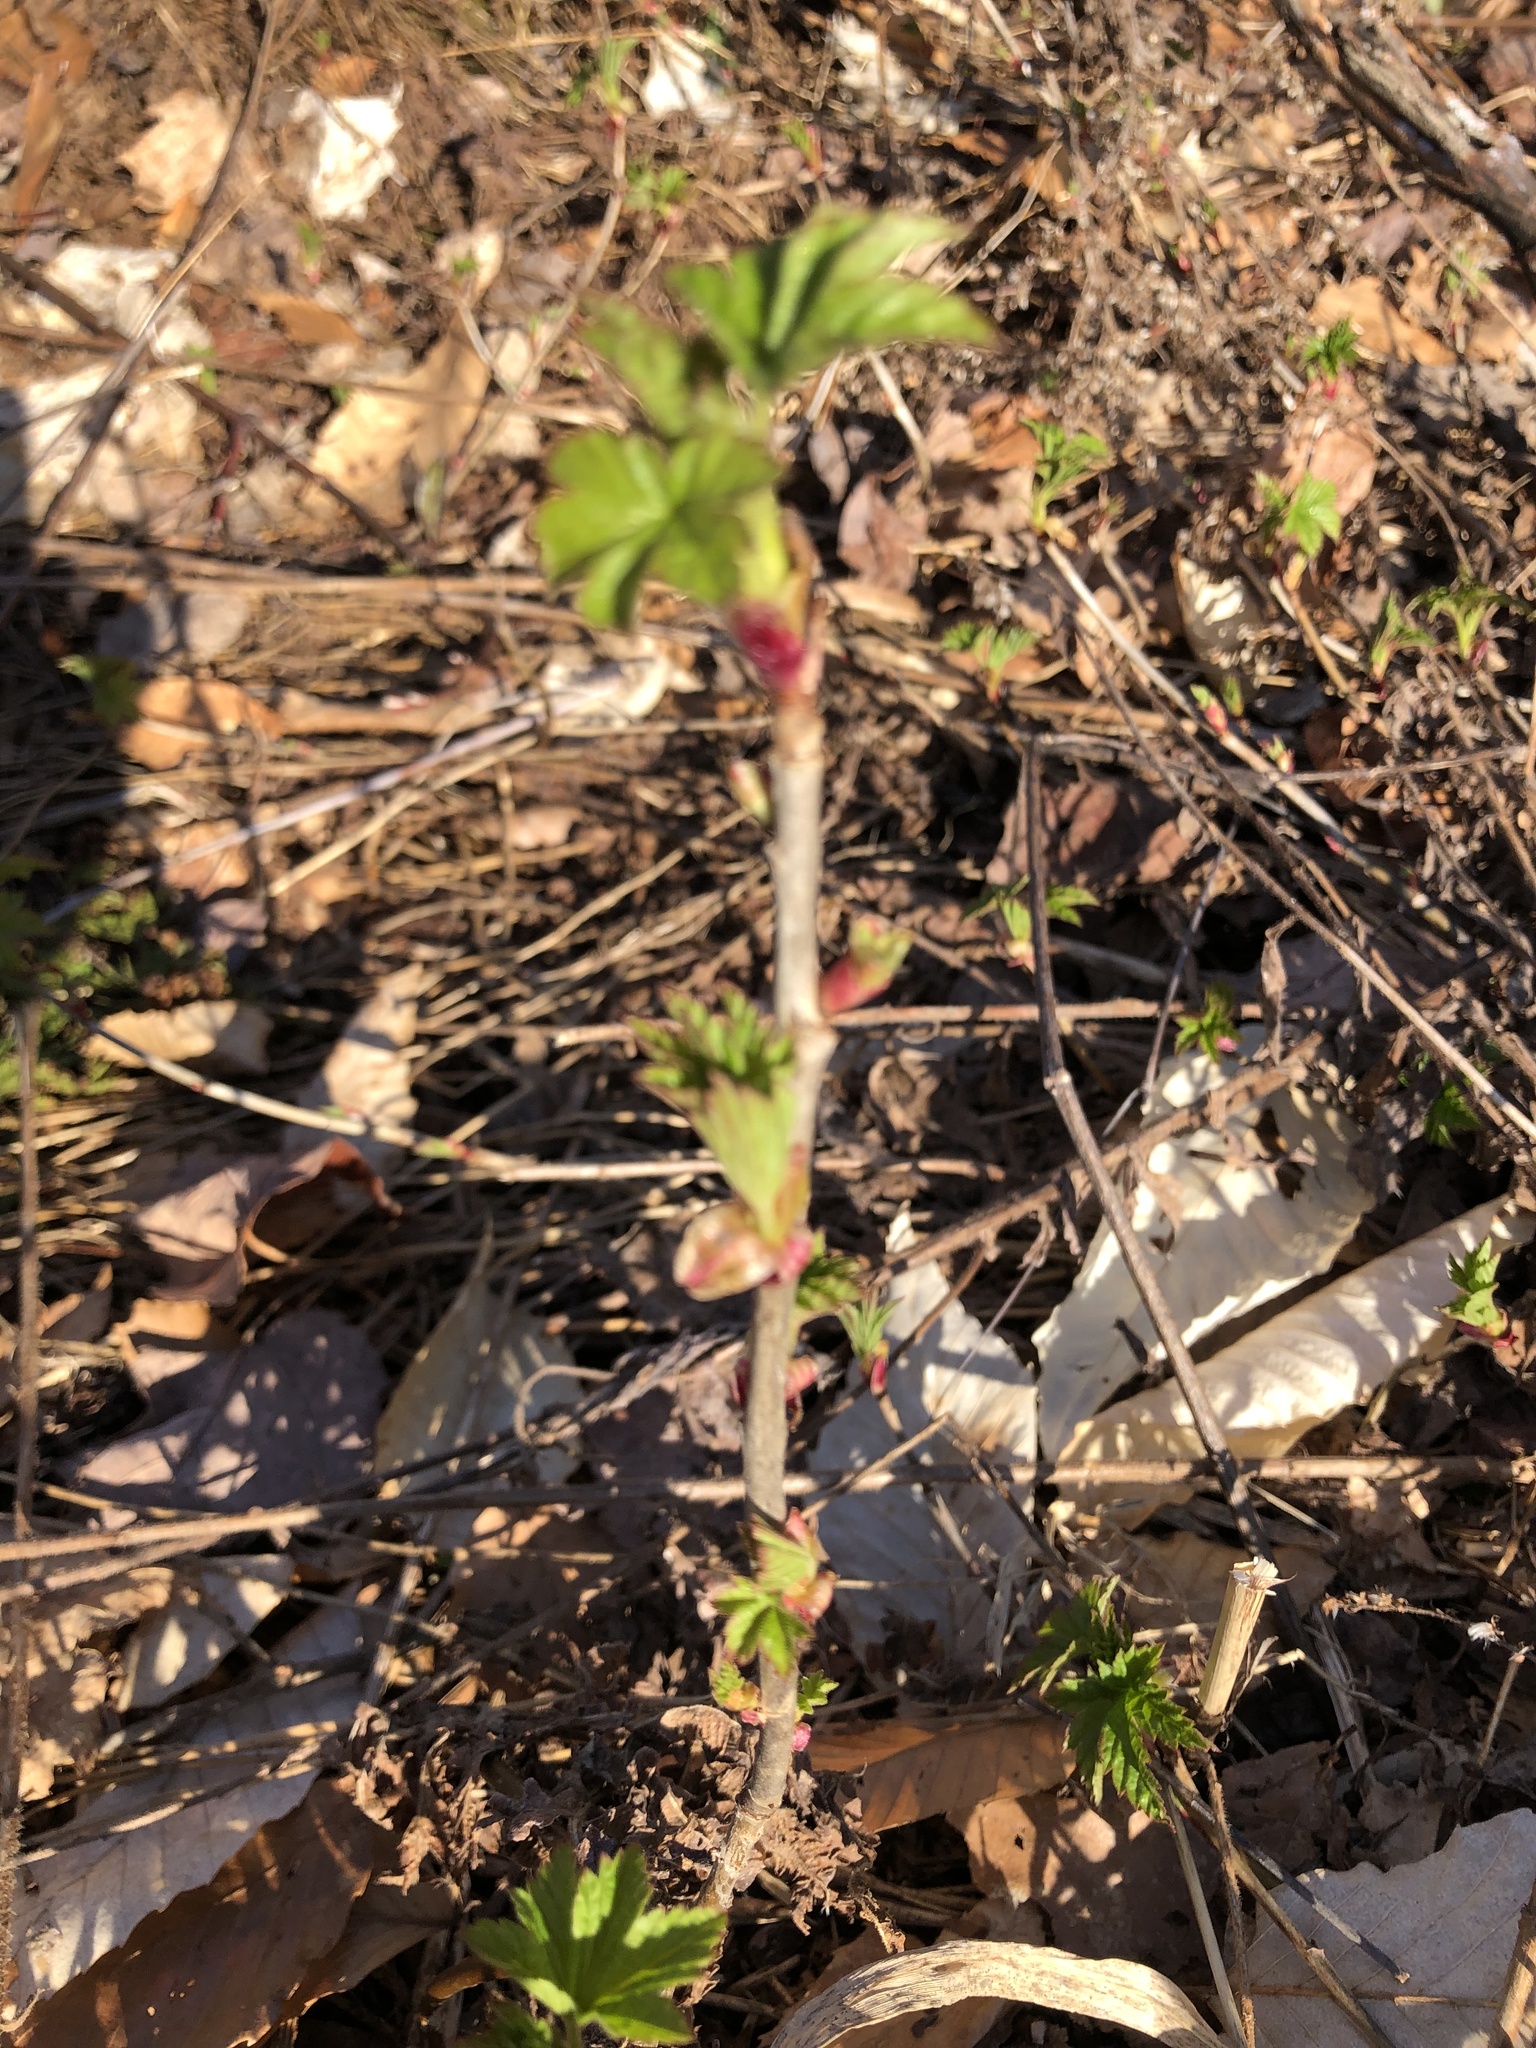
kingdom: Plantae
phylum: Tracheophyta
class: Magnoliopsida
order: Saxifragales
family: Grossulariaceae
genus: Ribes
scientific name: Ribes glandulosum
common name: Skunk currant
